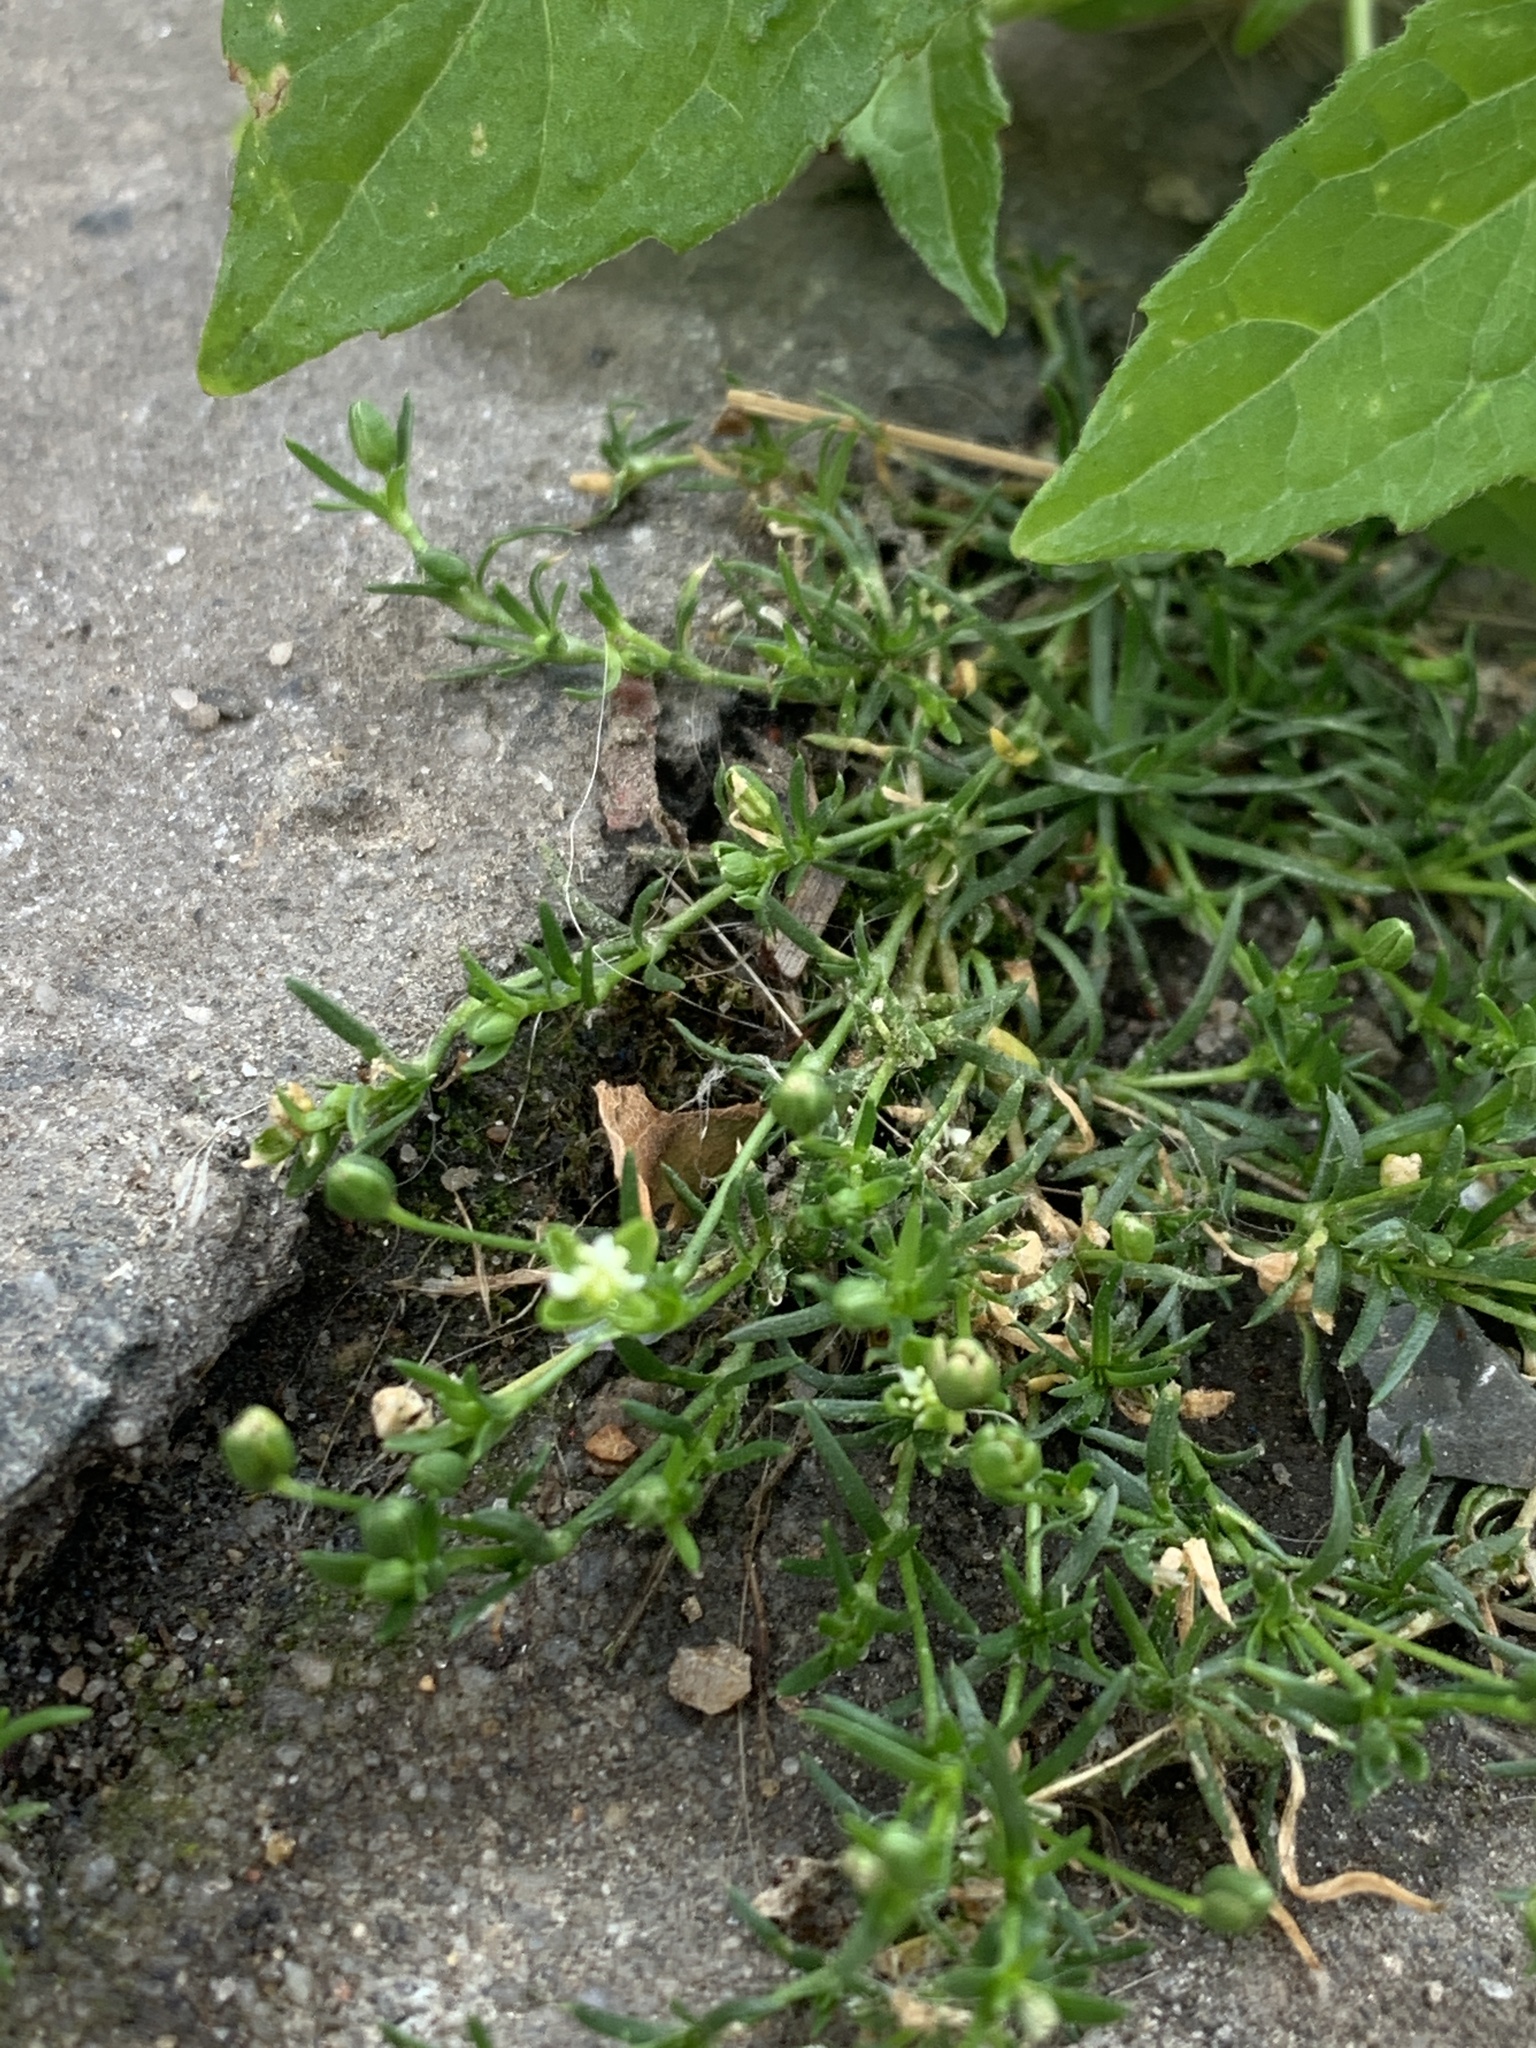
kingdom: Plantae
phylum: Tracheophyta
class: Magnoliopsida
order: Caryophyllales
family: Caryophyllaceae
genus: Sagina
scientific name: Sagina procumbens
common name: Procumbent pearlwort
